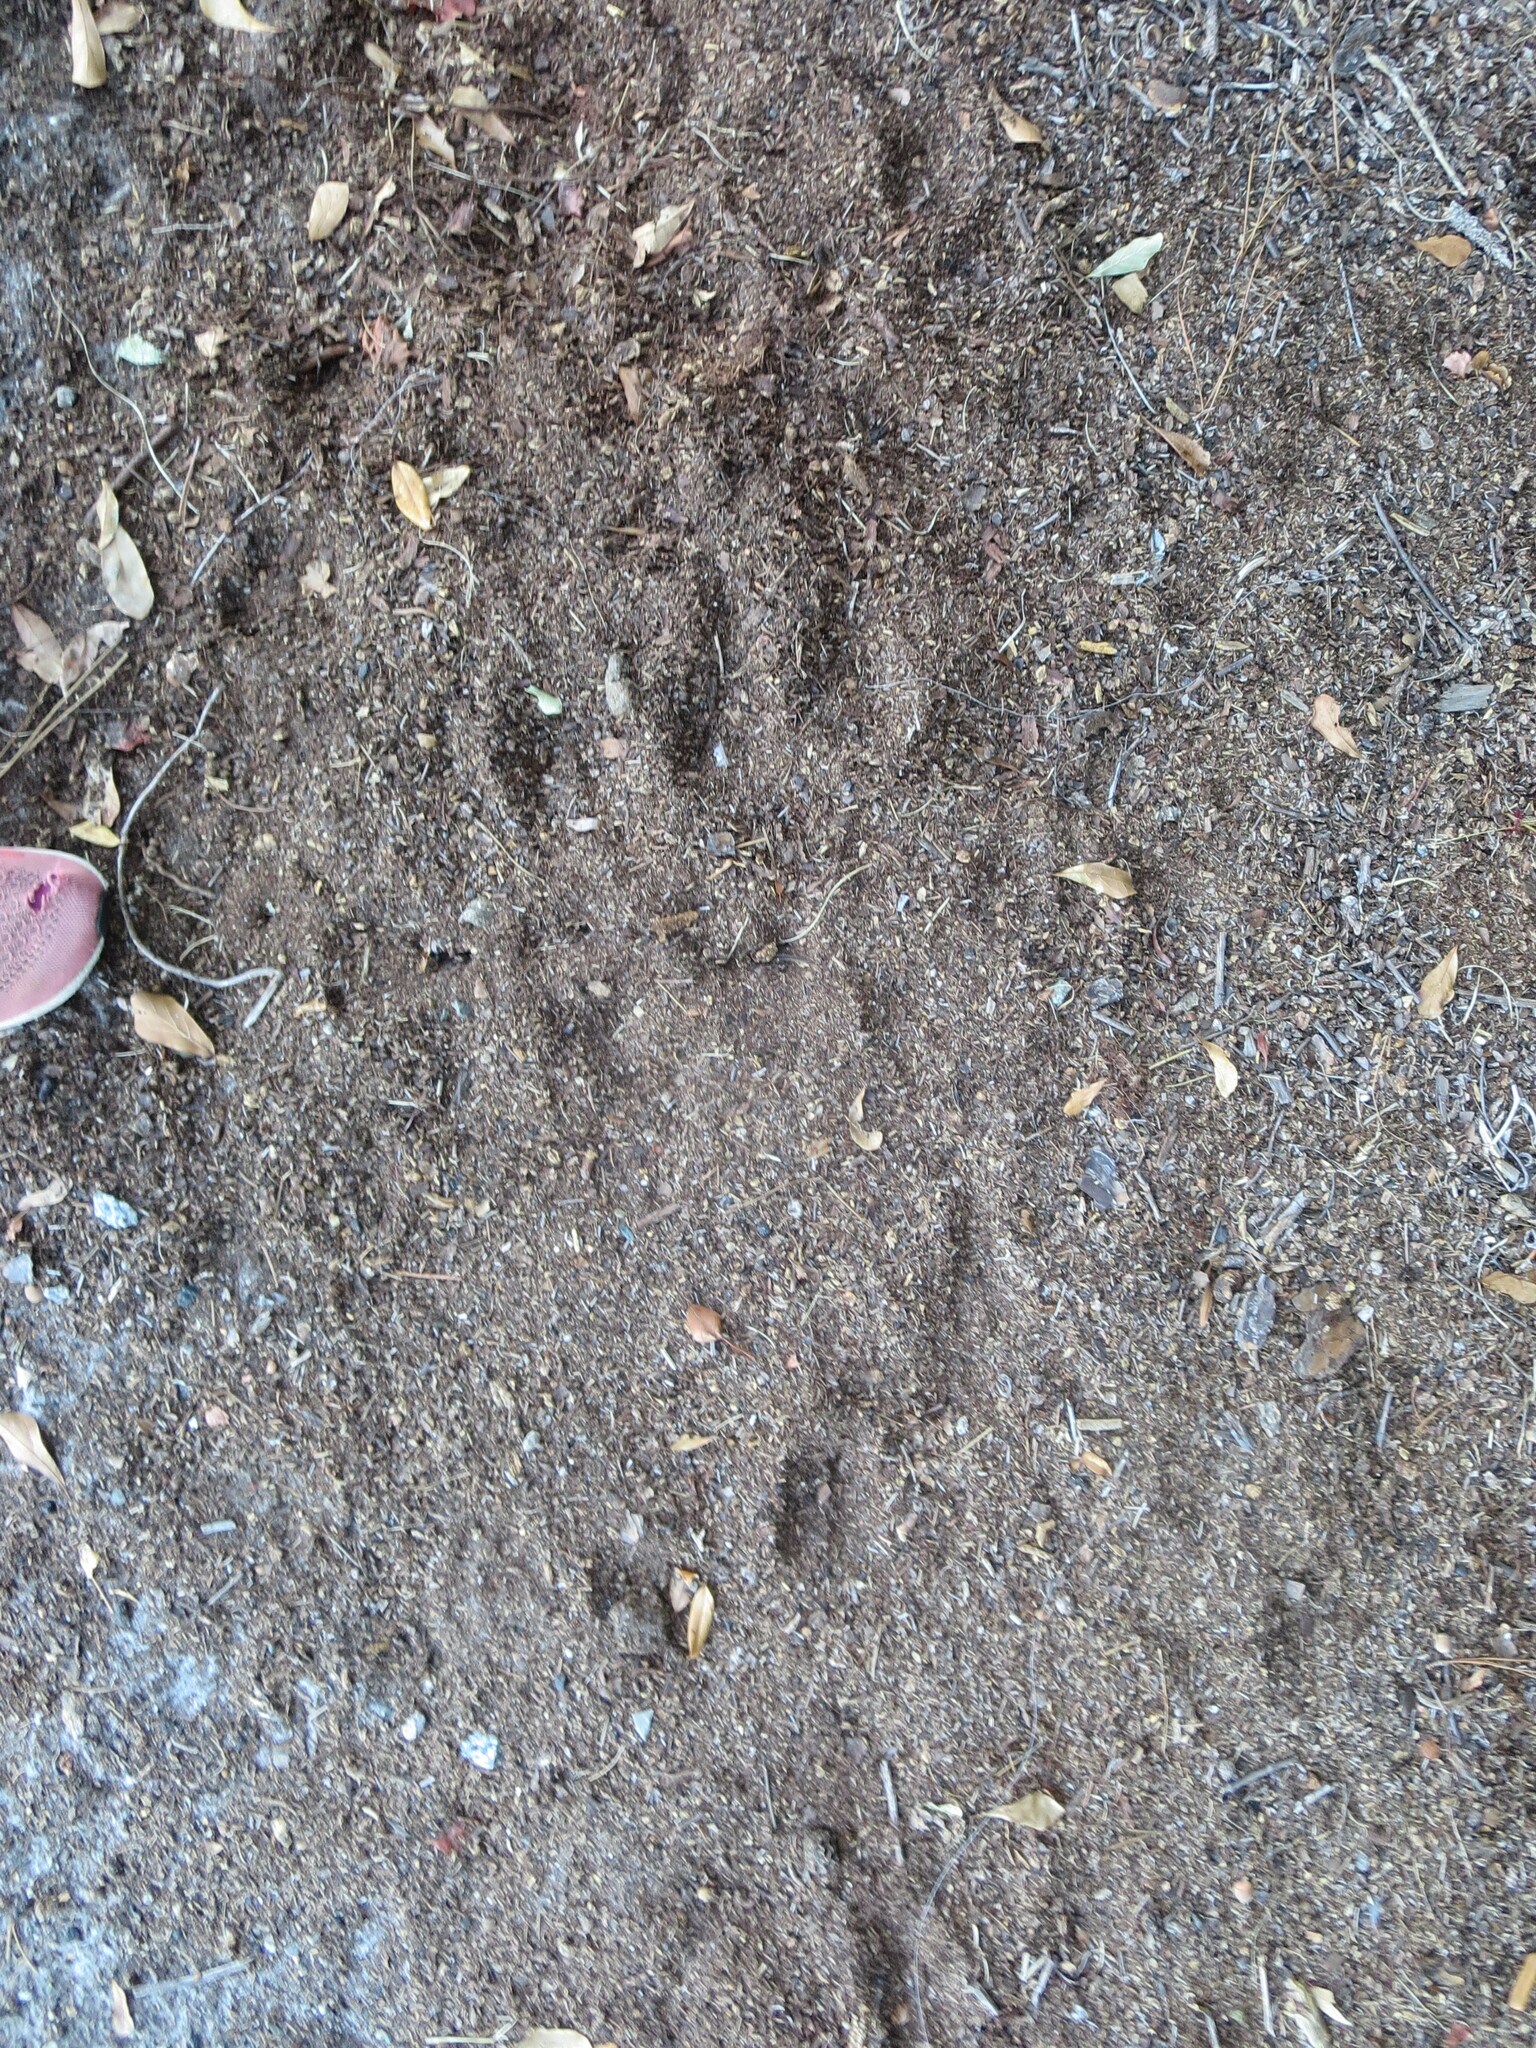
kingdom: Animalia
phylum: Chordata
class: Mammalia
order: Artiodactyla
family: Cervidae
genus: Odocoileus
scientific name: Odocoileus virginianus
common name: White-tailed deer
